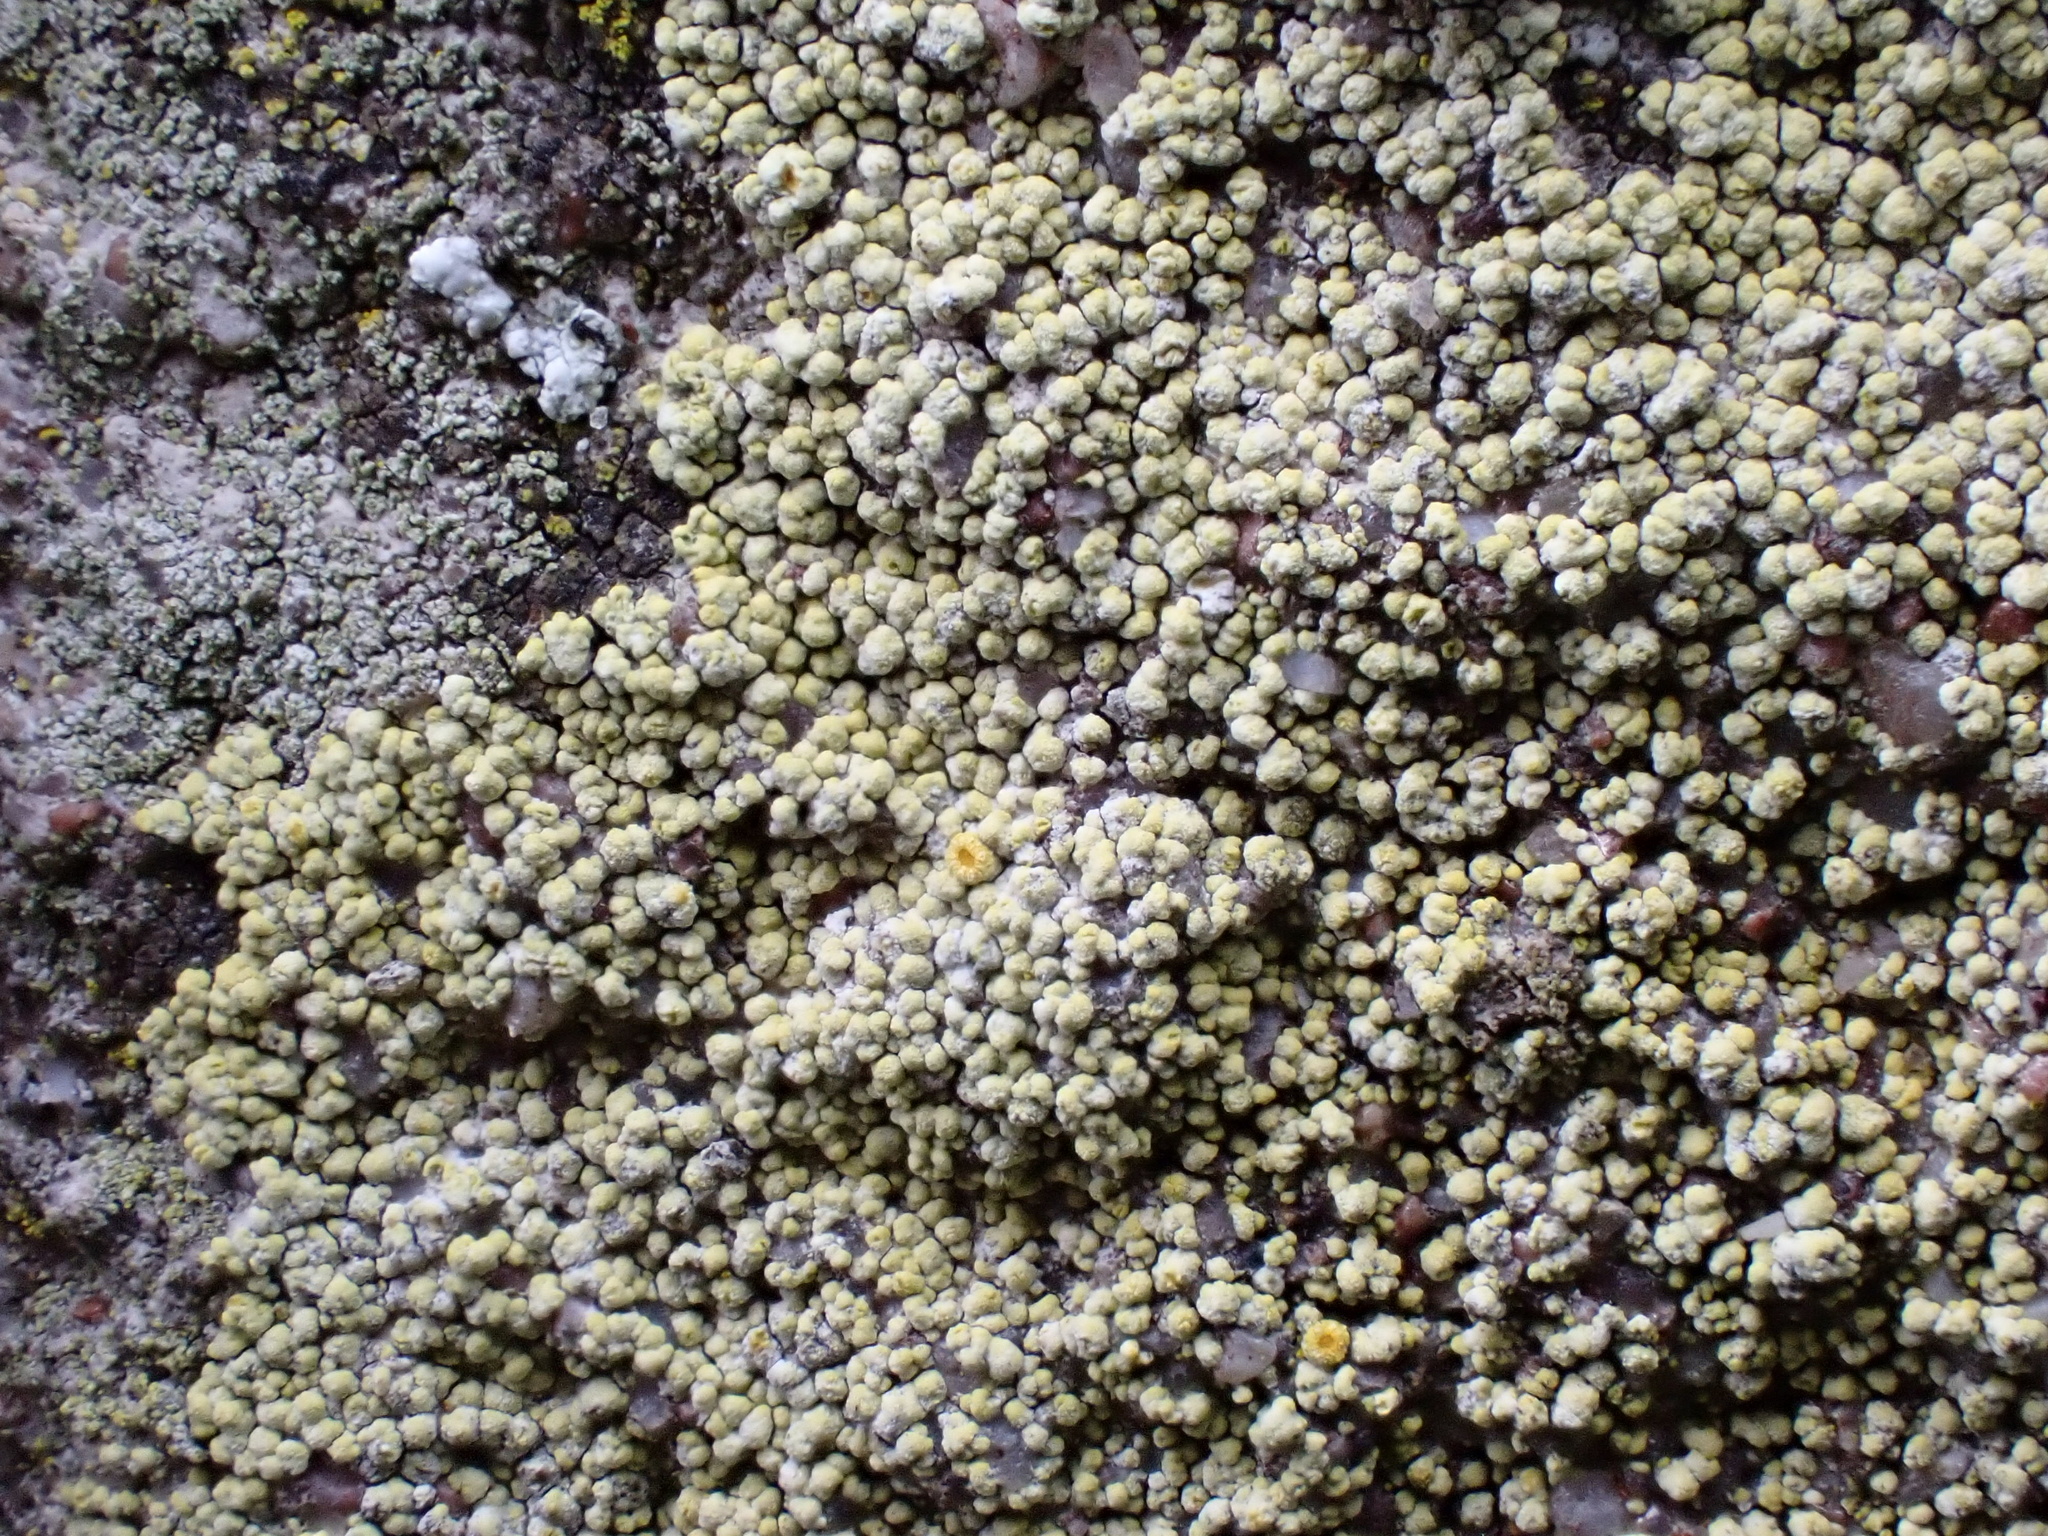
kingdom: Fungi
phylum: Ascomycota
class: Lecanoromycetes
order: Teloschistales
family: Teloschistaceae
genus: Caloplaca
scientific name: Caloplaca ruderum
